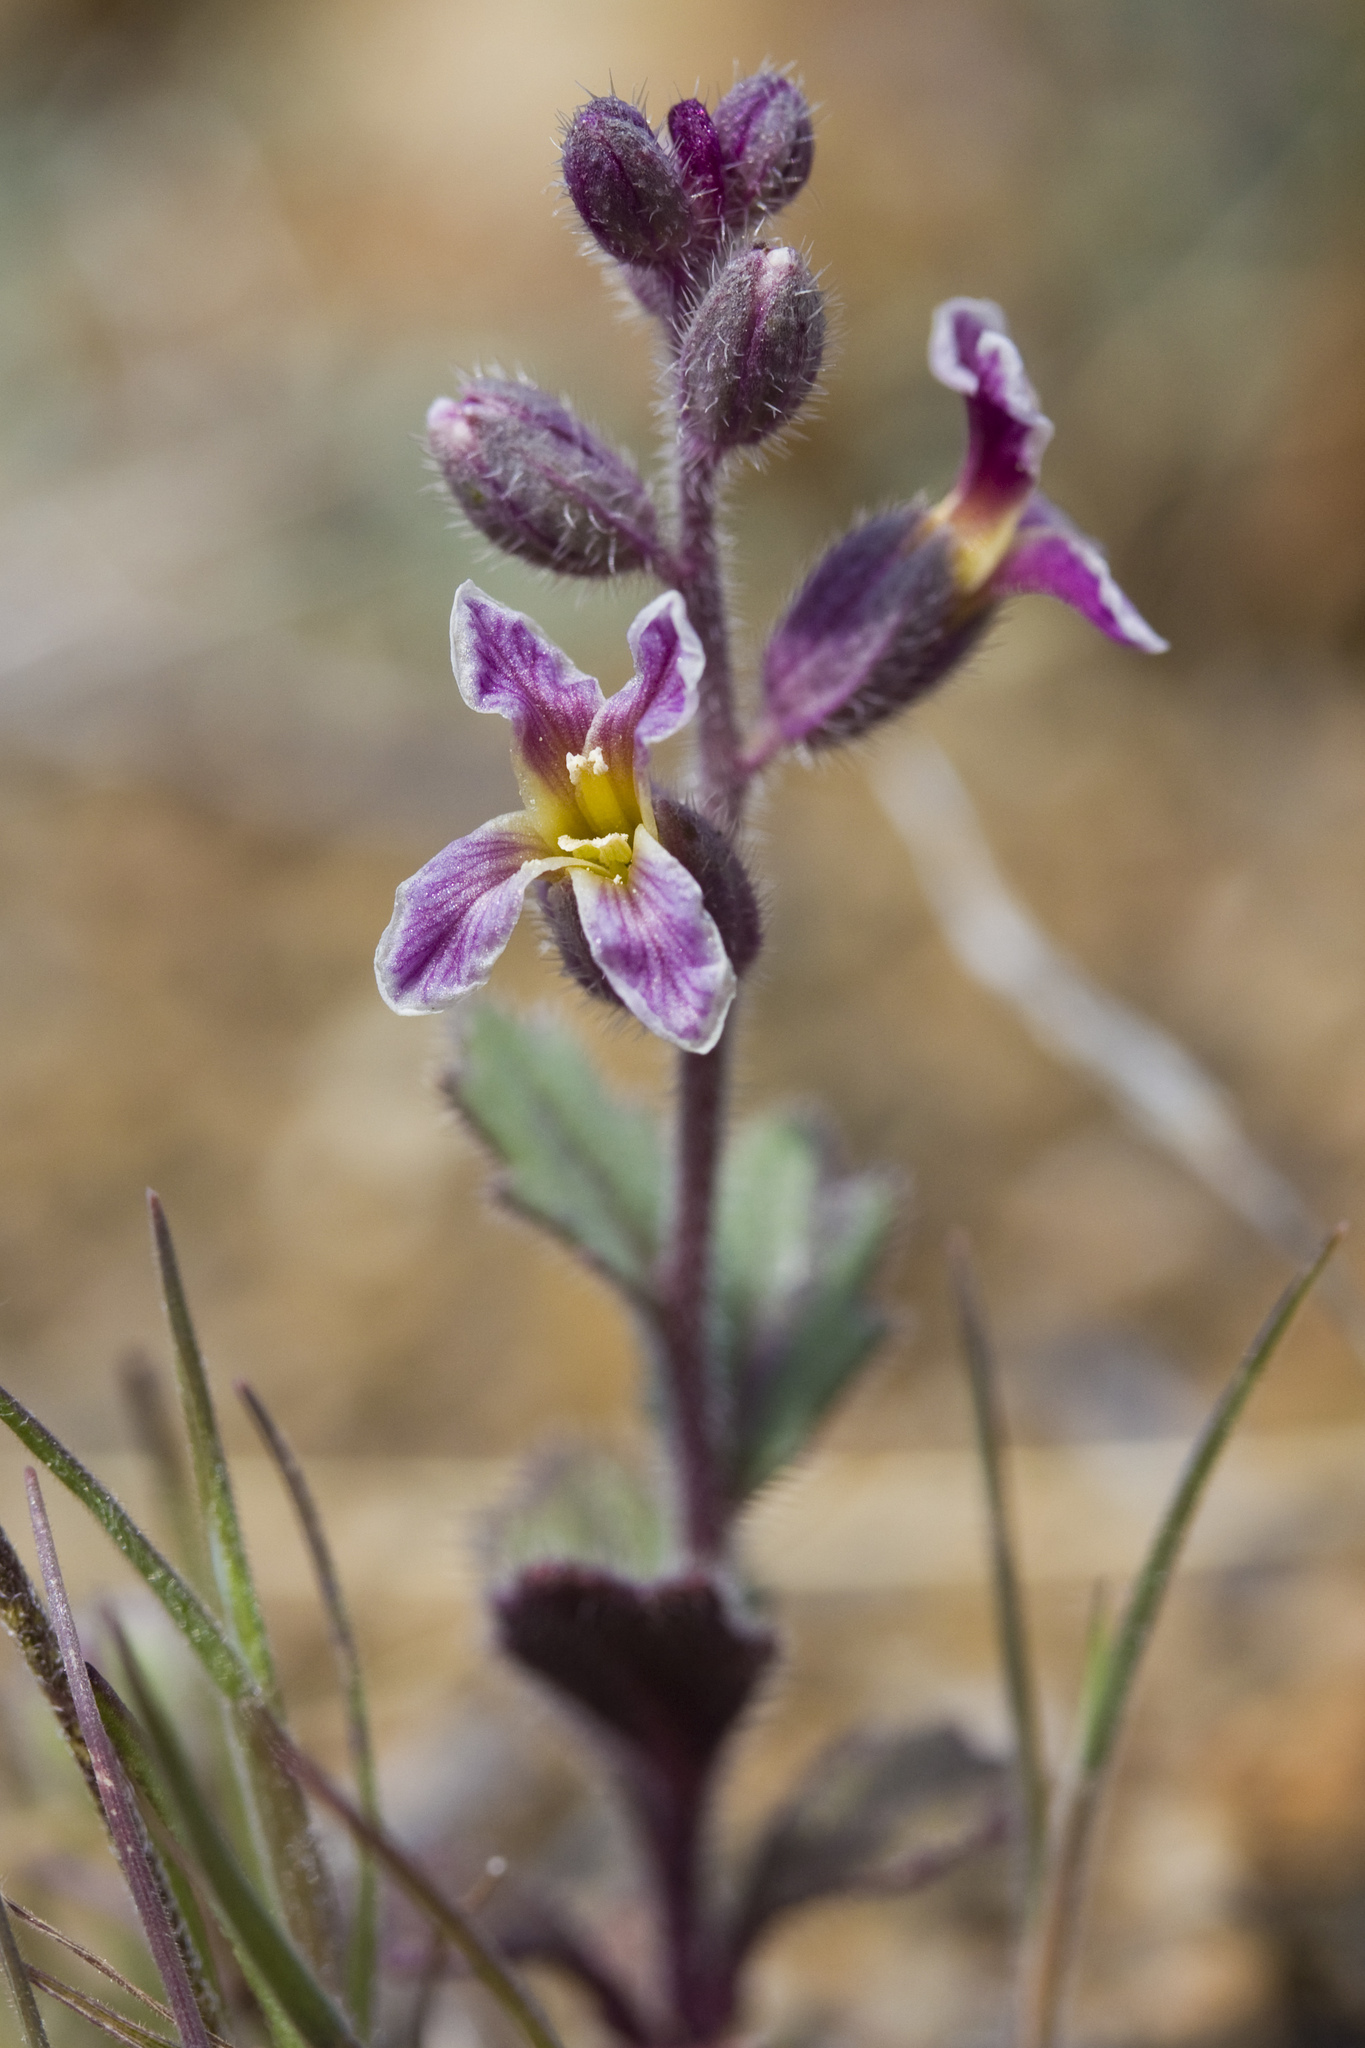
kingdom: Plantae
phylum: Tracheophyta
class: Magnoliopsida
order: Brassicales
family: Brassicaceae
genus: Streptanthus
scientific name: Streptanthus hispidus
